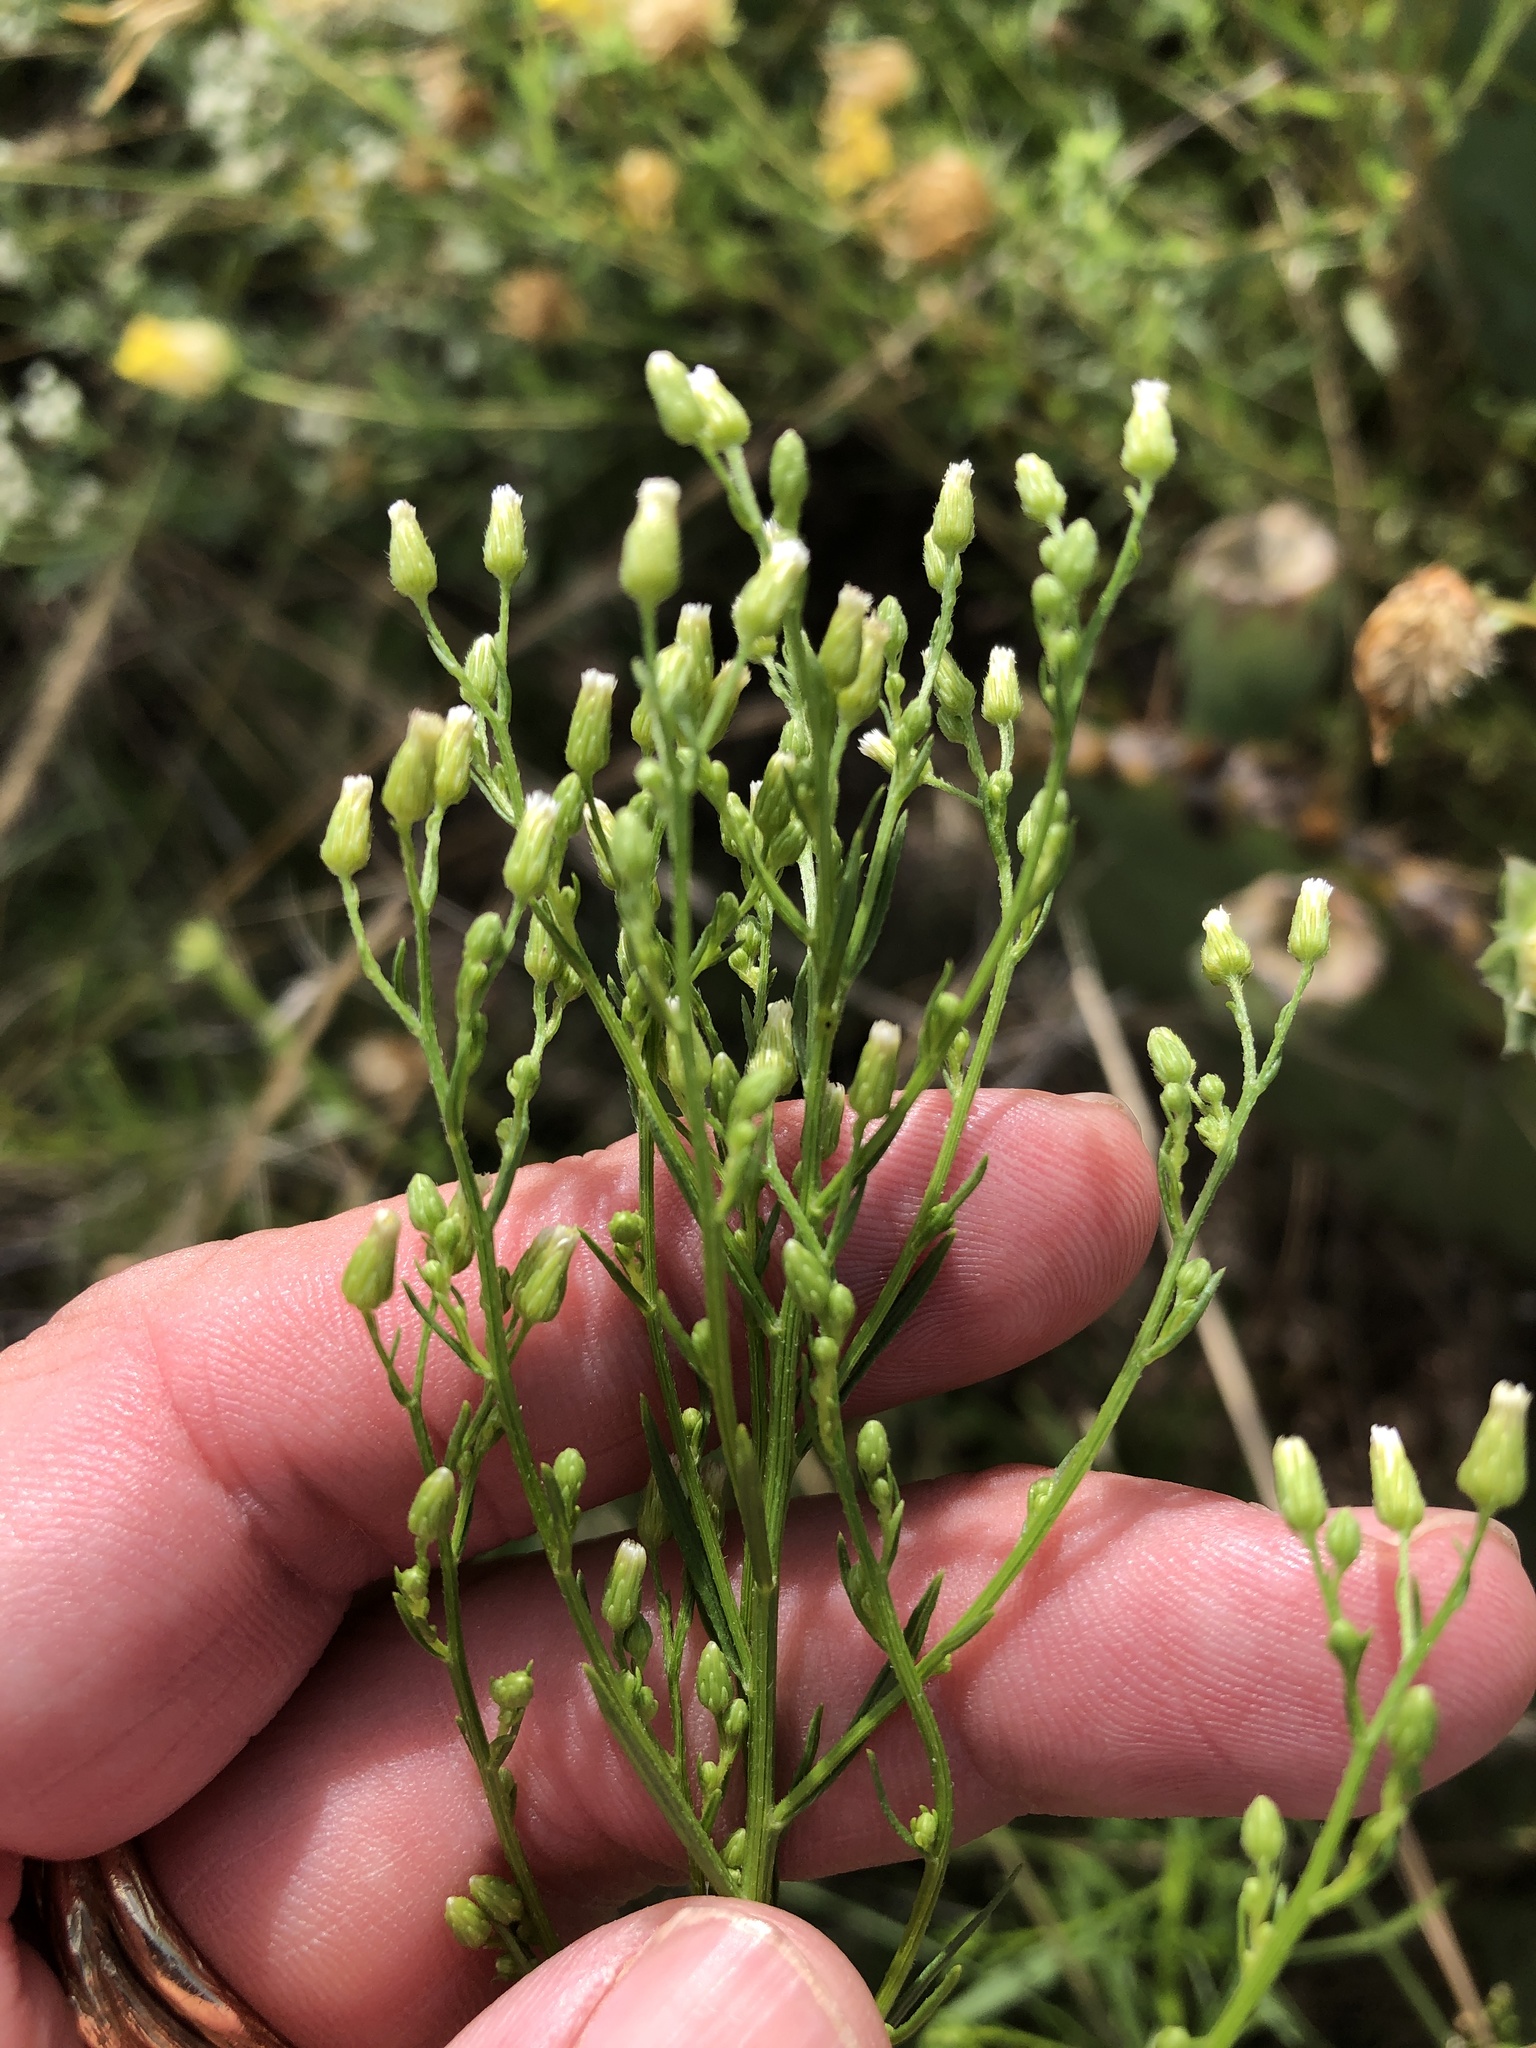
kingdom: Plantae
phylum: Tracheophyta
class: Magnoliopsida
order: Asterales
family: Asteraceae
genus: Erigeron
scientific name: Erigeron canadensis
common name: Canadian fleabane
